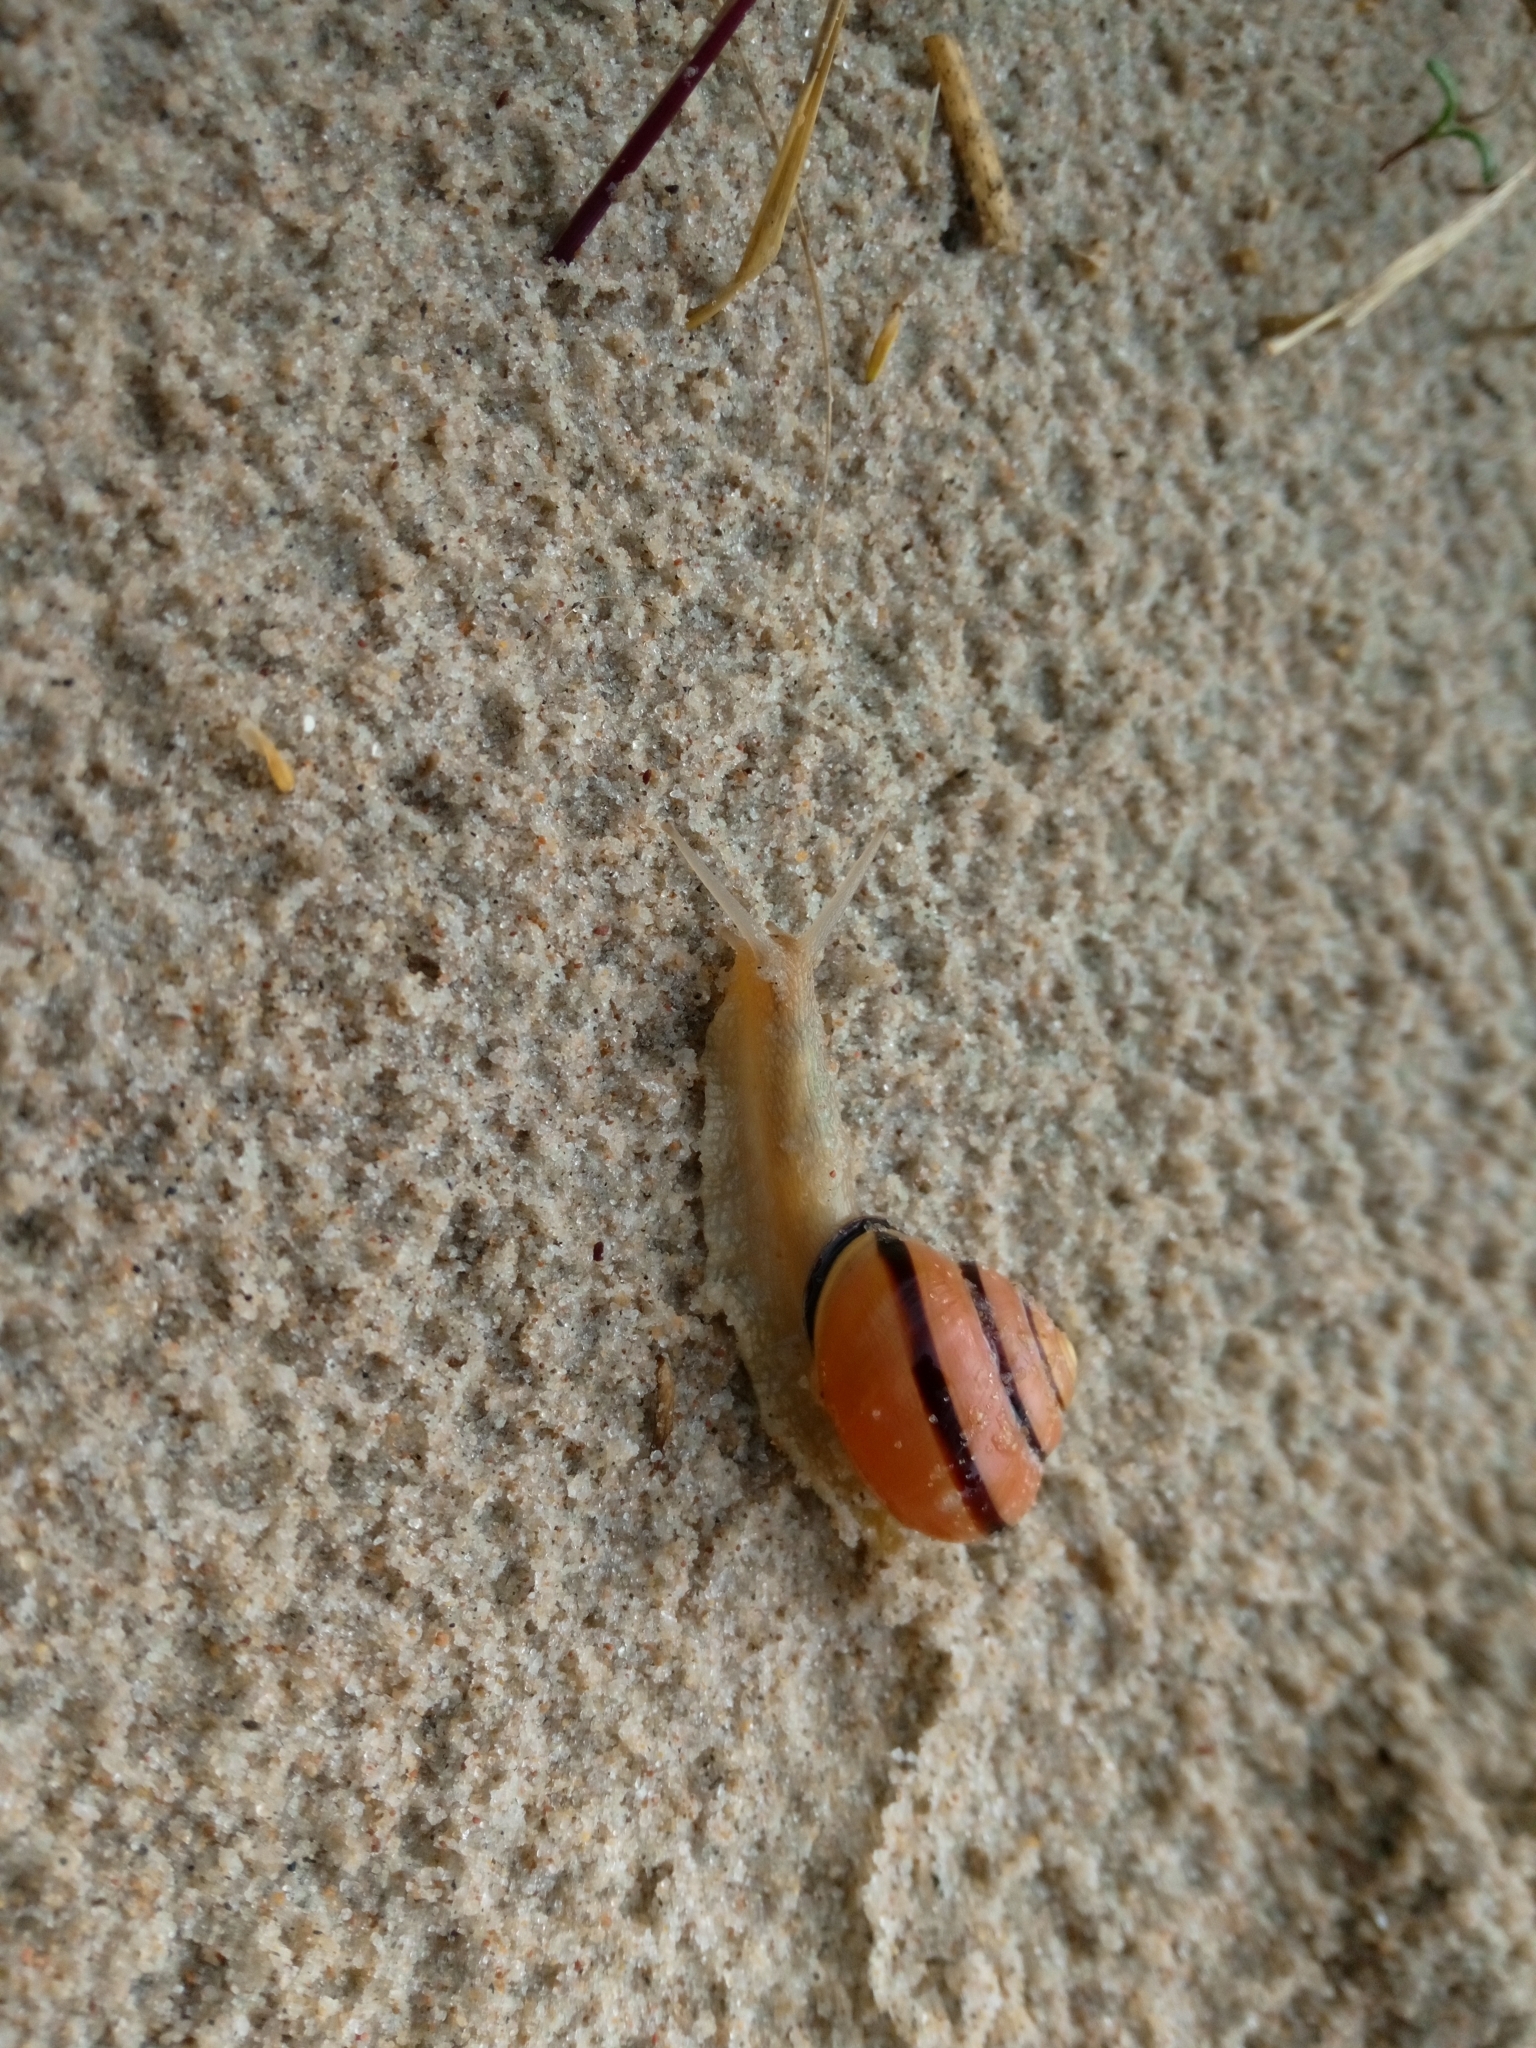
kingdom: Animalia
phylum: Mollusca
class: Gastropoda
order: Stylommatophora
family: Helicidae
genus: Cepaea
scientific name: Cepaea nemoralis
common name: Grovesnail
